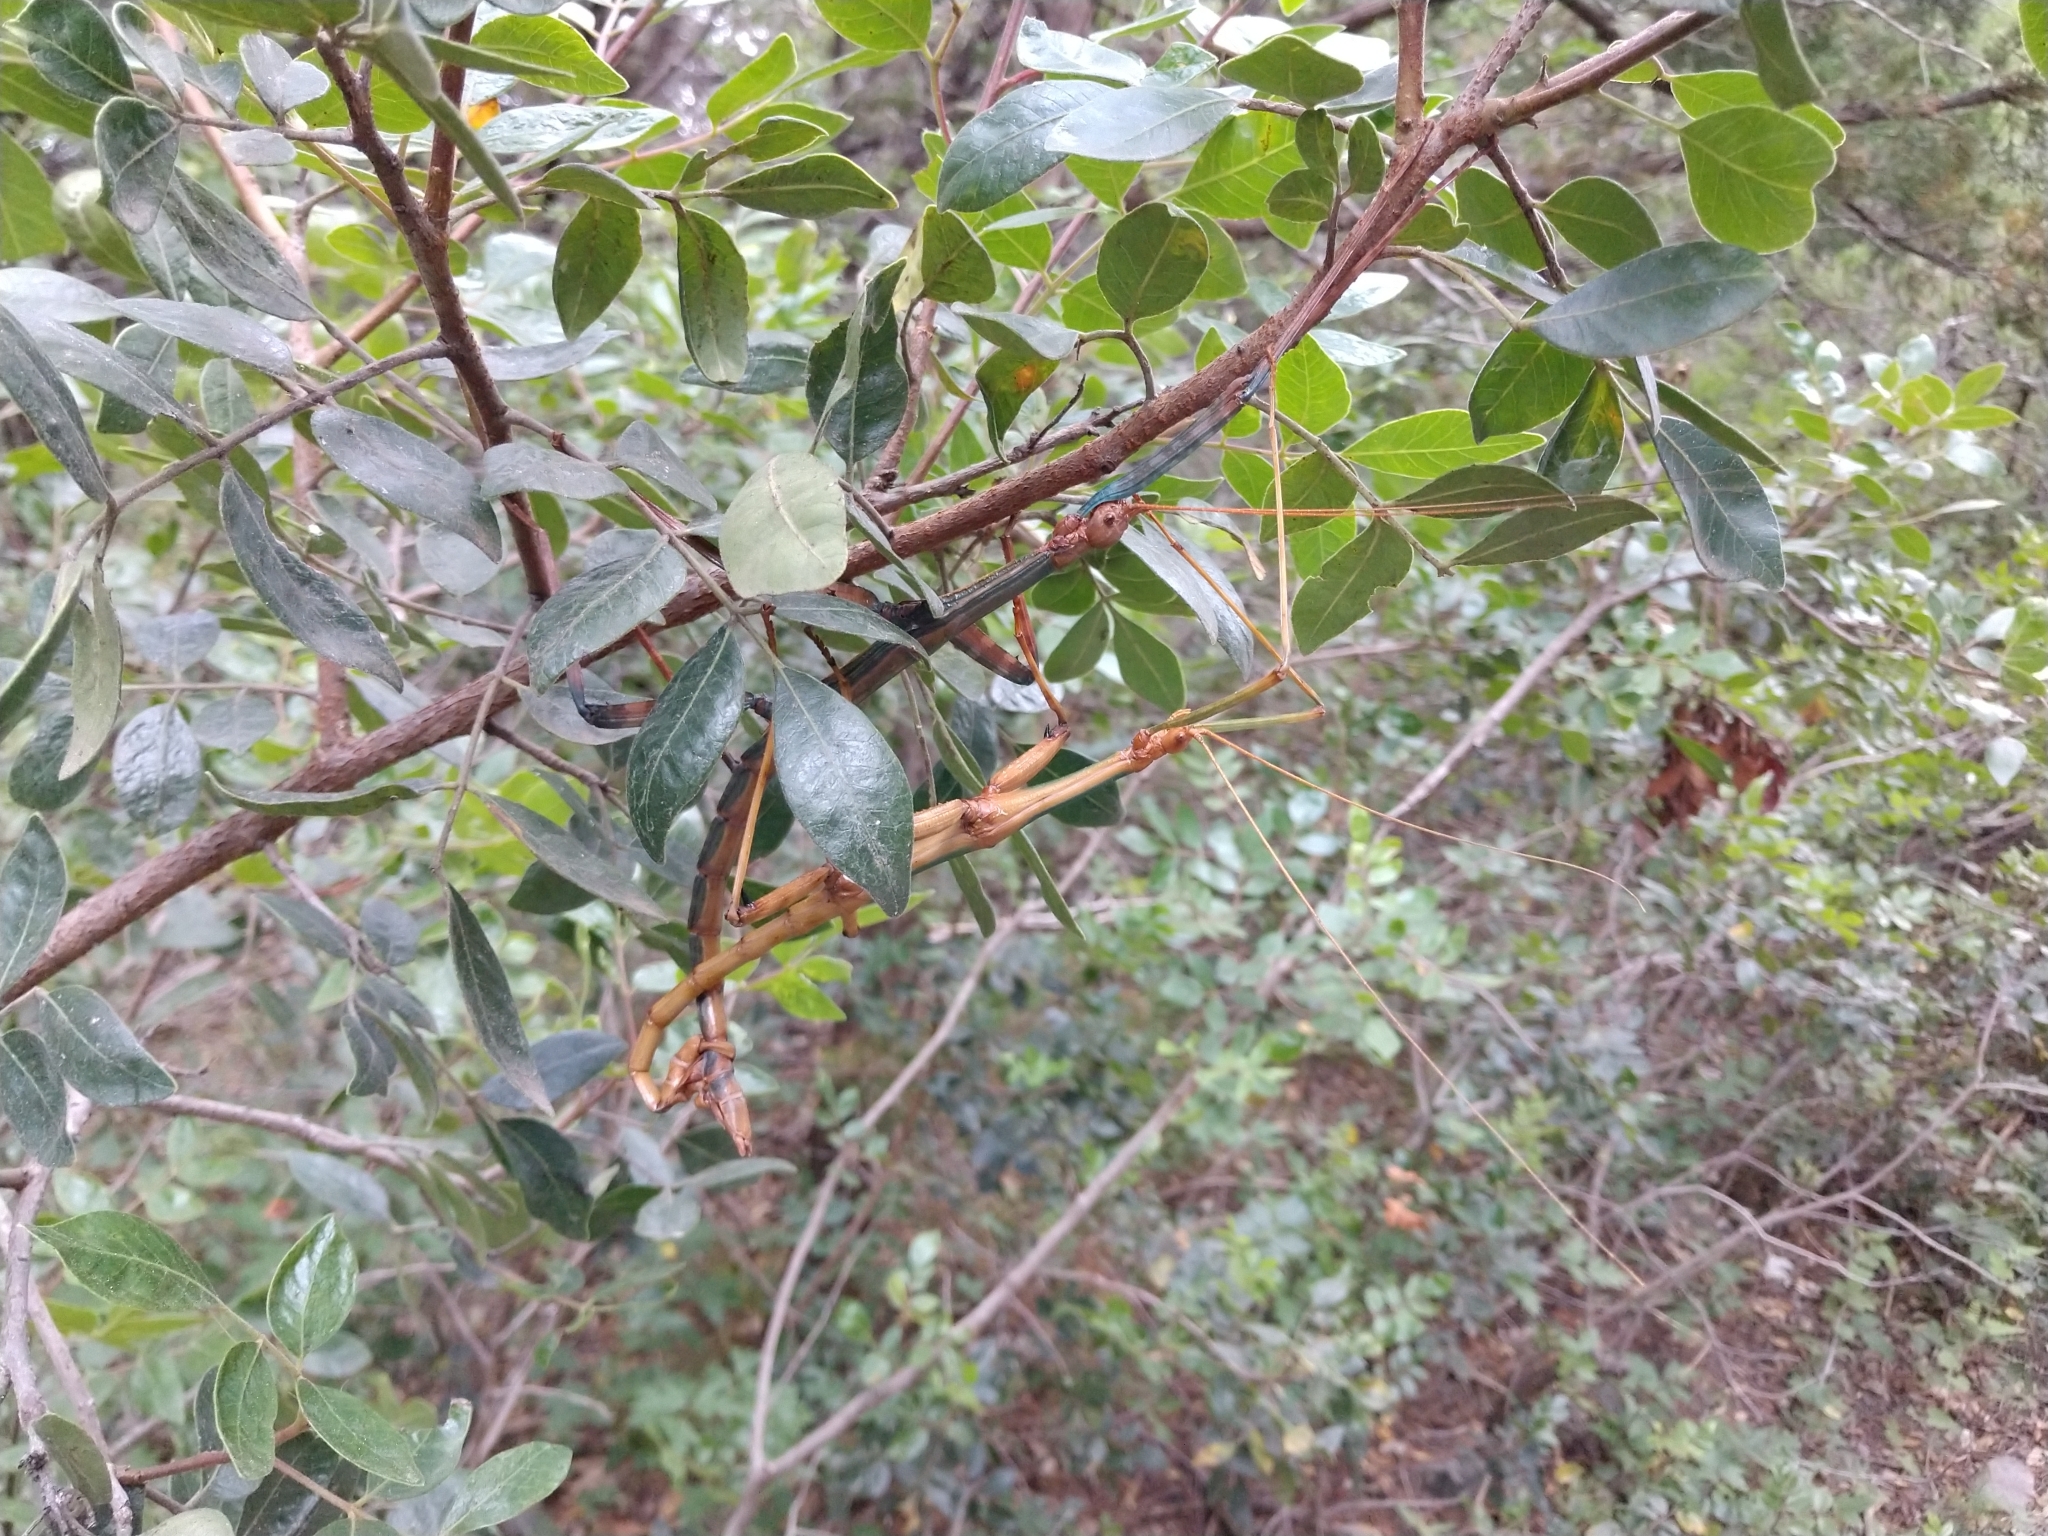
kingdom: Animalia
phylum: Arthropoda
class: Insecta
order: Phasmida
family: Diapheromeridae
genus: Megaphasma
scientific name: Megaphasma denticrus
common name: Giant walkingstick
